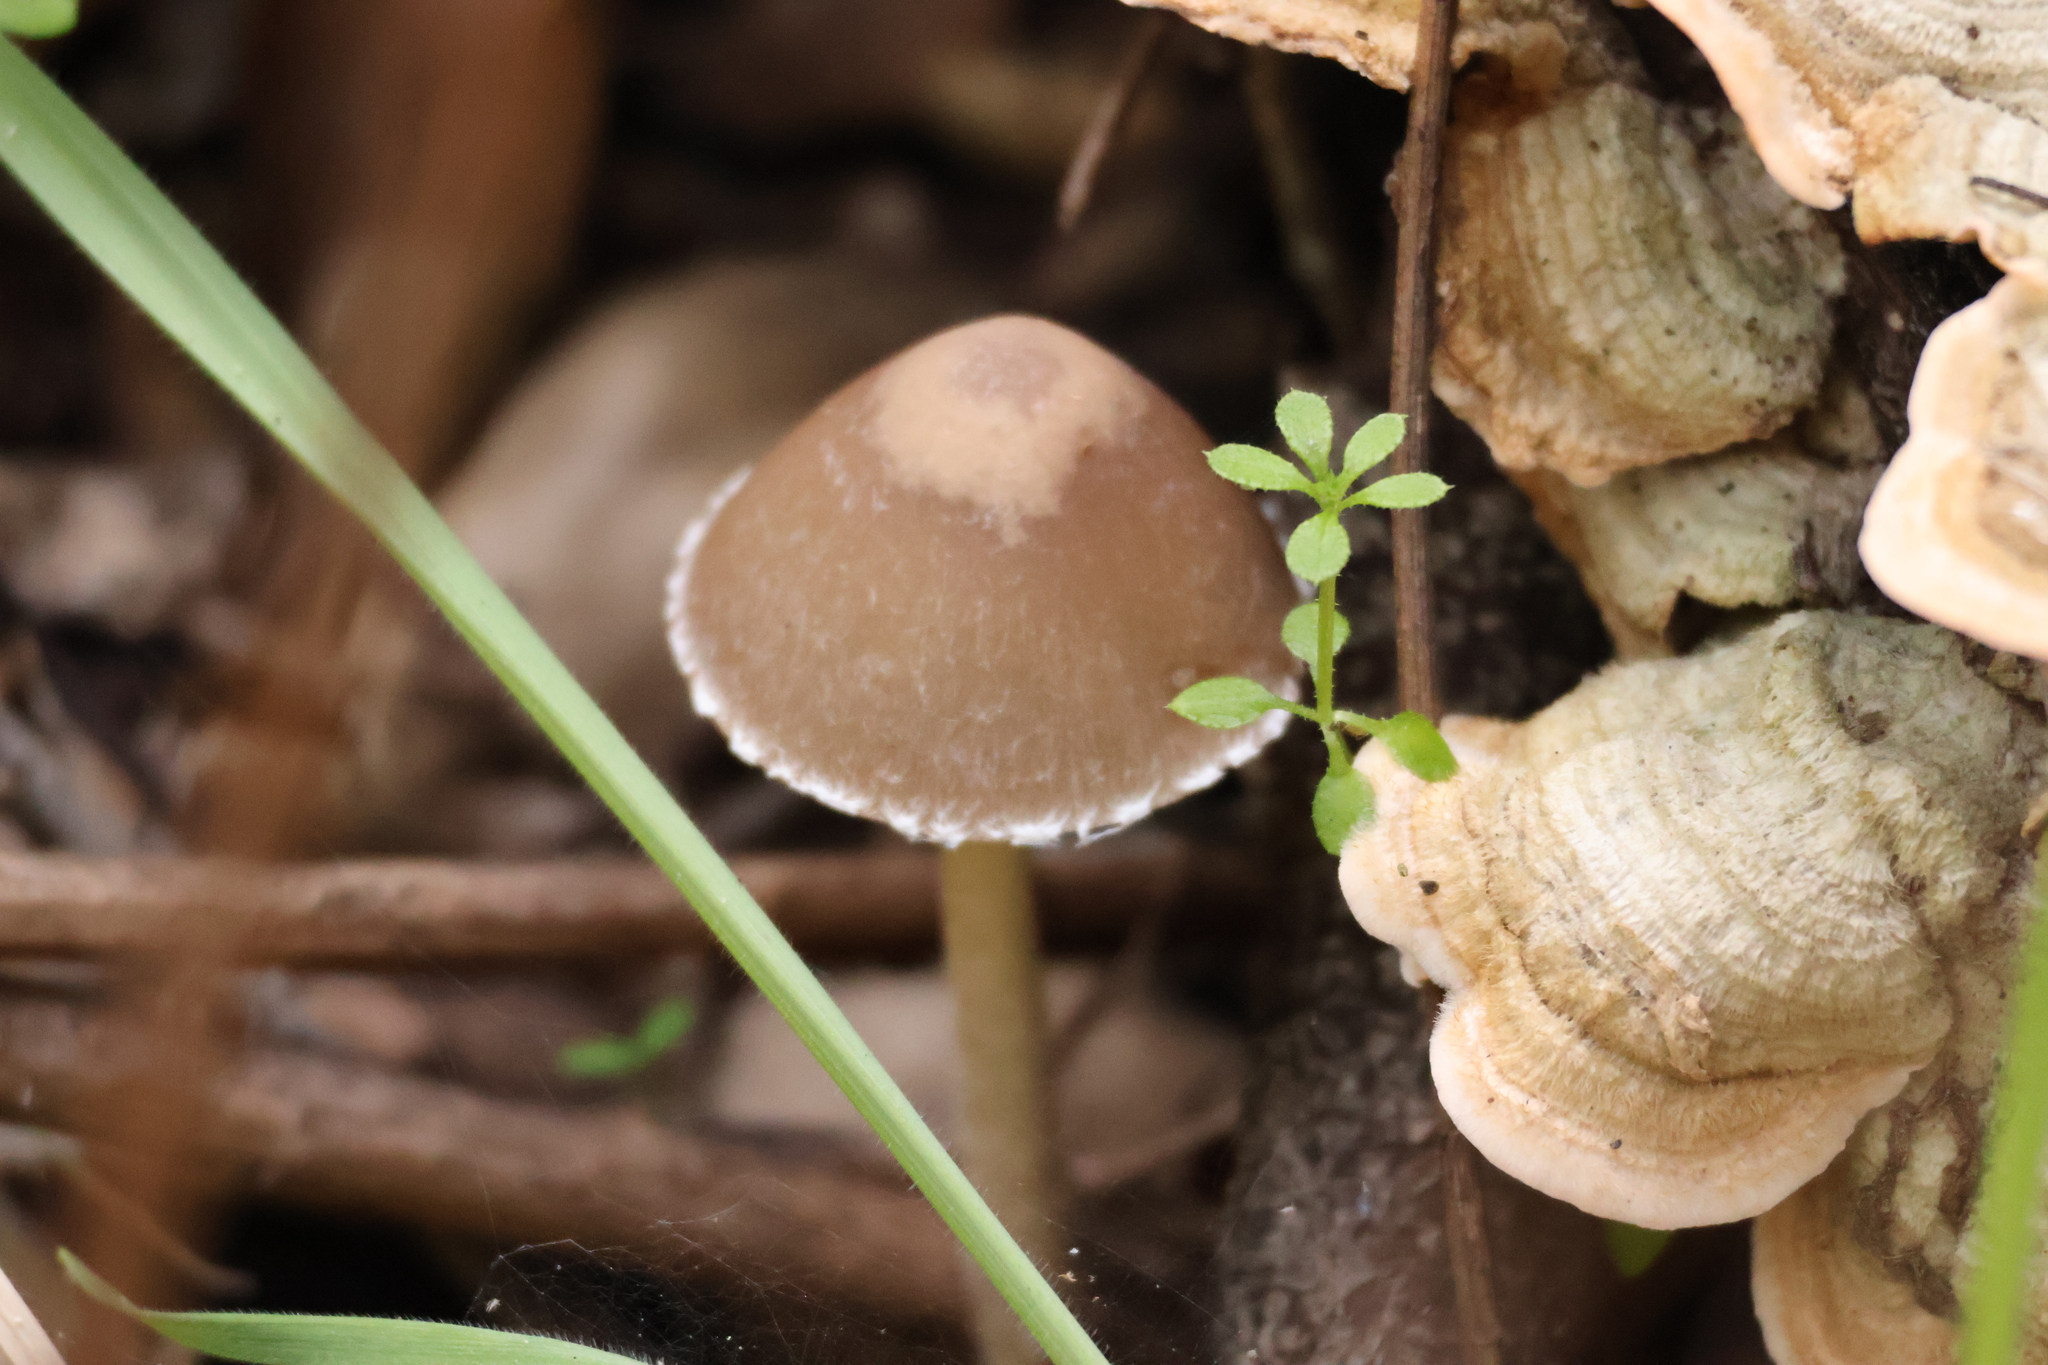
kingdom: Fungi
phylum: Basidiomycota
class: Agaricomycetes
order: Agaricales
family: Psathyrellaceae
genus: Psathyrella
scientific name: Psathyrella longipes
